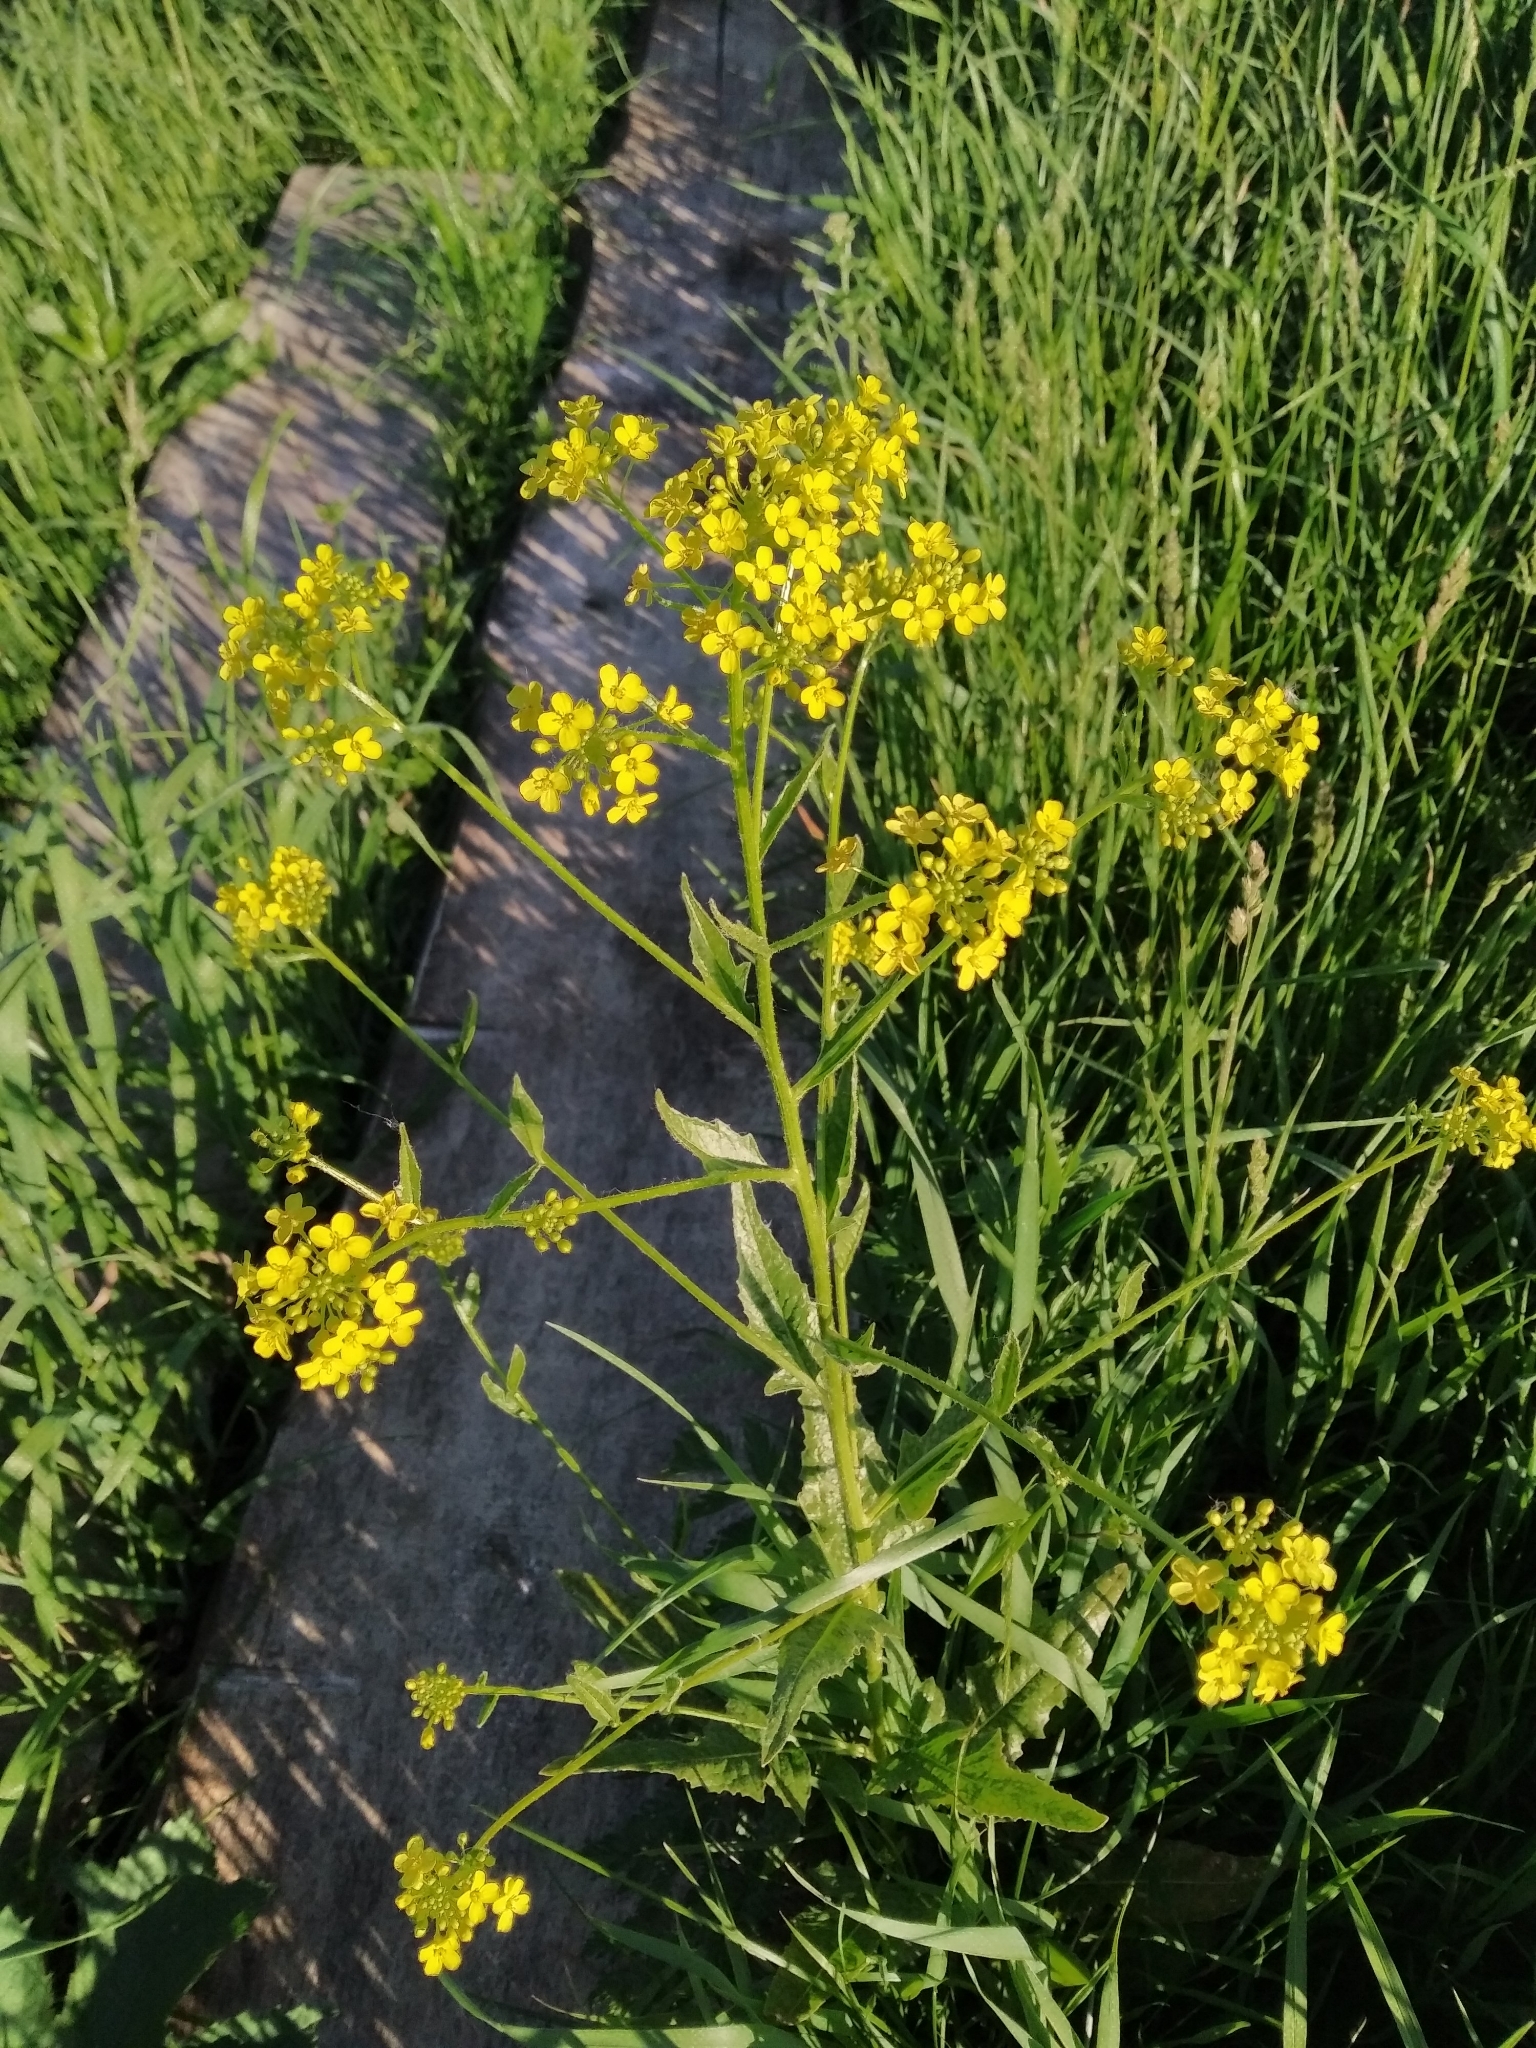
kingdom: Plantae
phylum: Tracheophyta
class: Magnoliopsida
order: Brassicales
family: Brassicaceae
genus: Bunias
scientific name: Bunias orientalis
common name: Warty-cabbage
